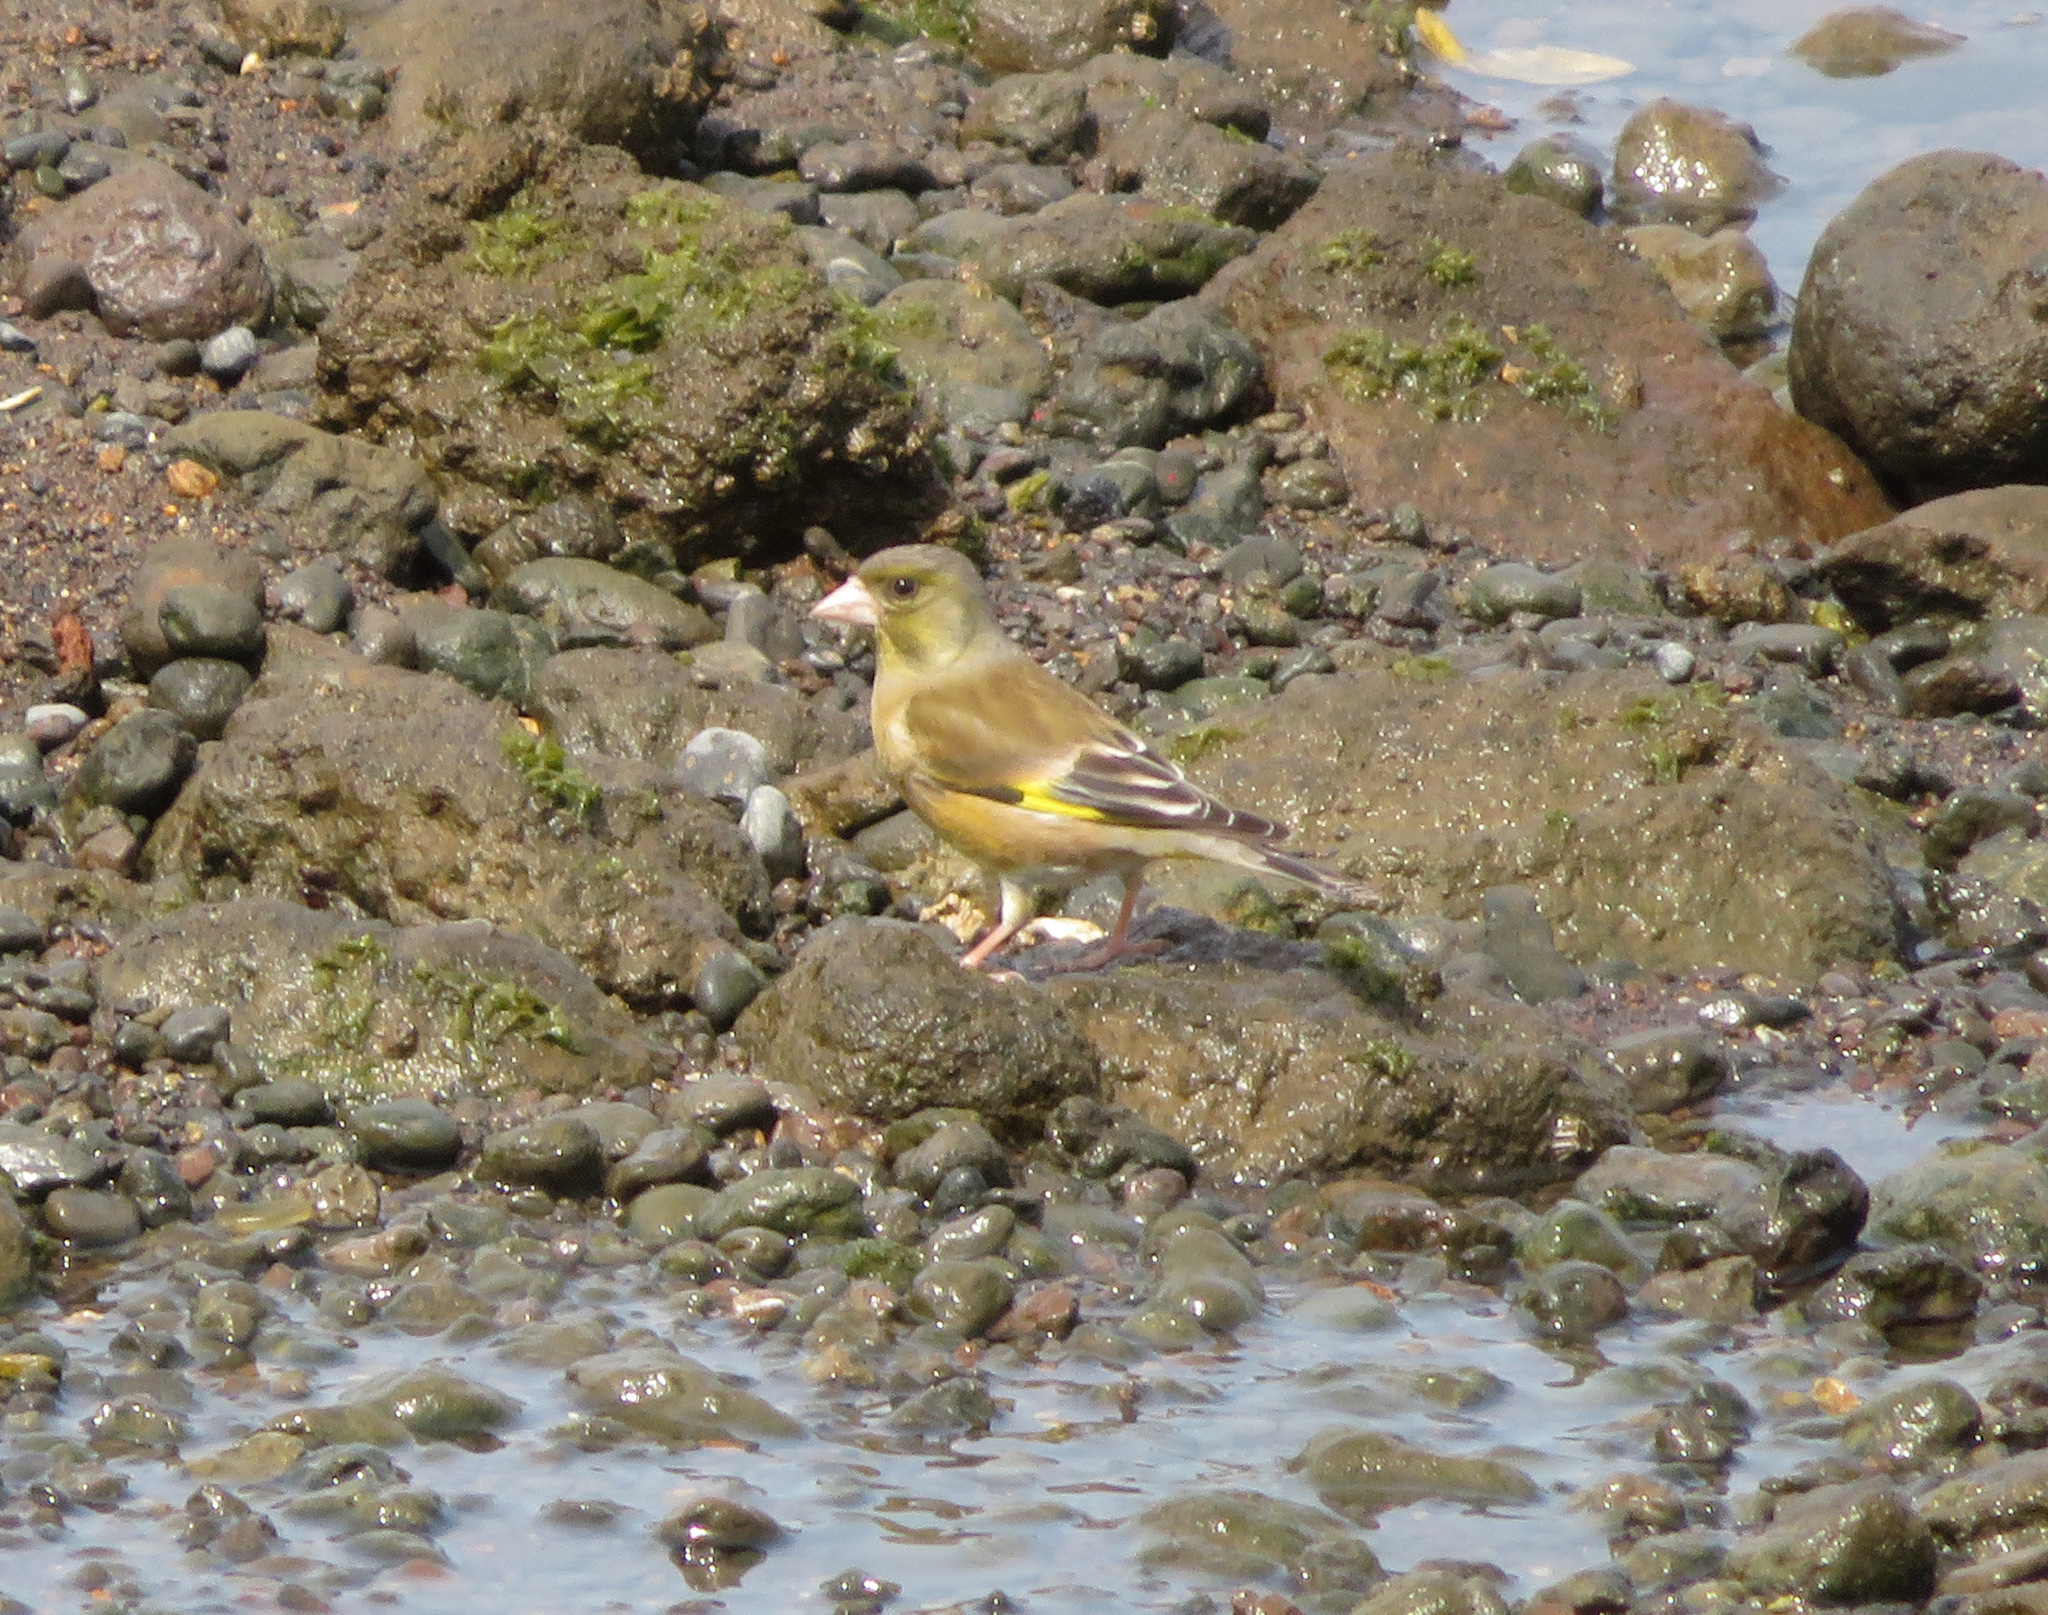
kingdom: Plantae
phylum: Tracheophyta
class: Liliopsida
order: Poales
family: Poaceae
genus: Chloris
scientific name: Chloris sinica
